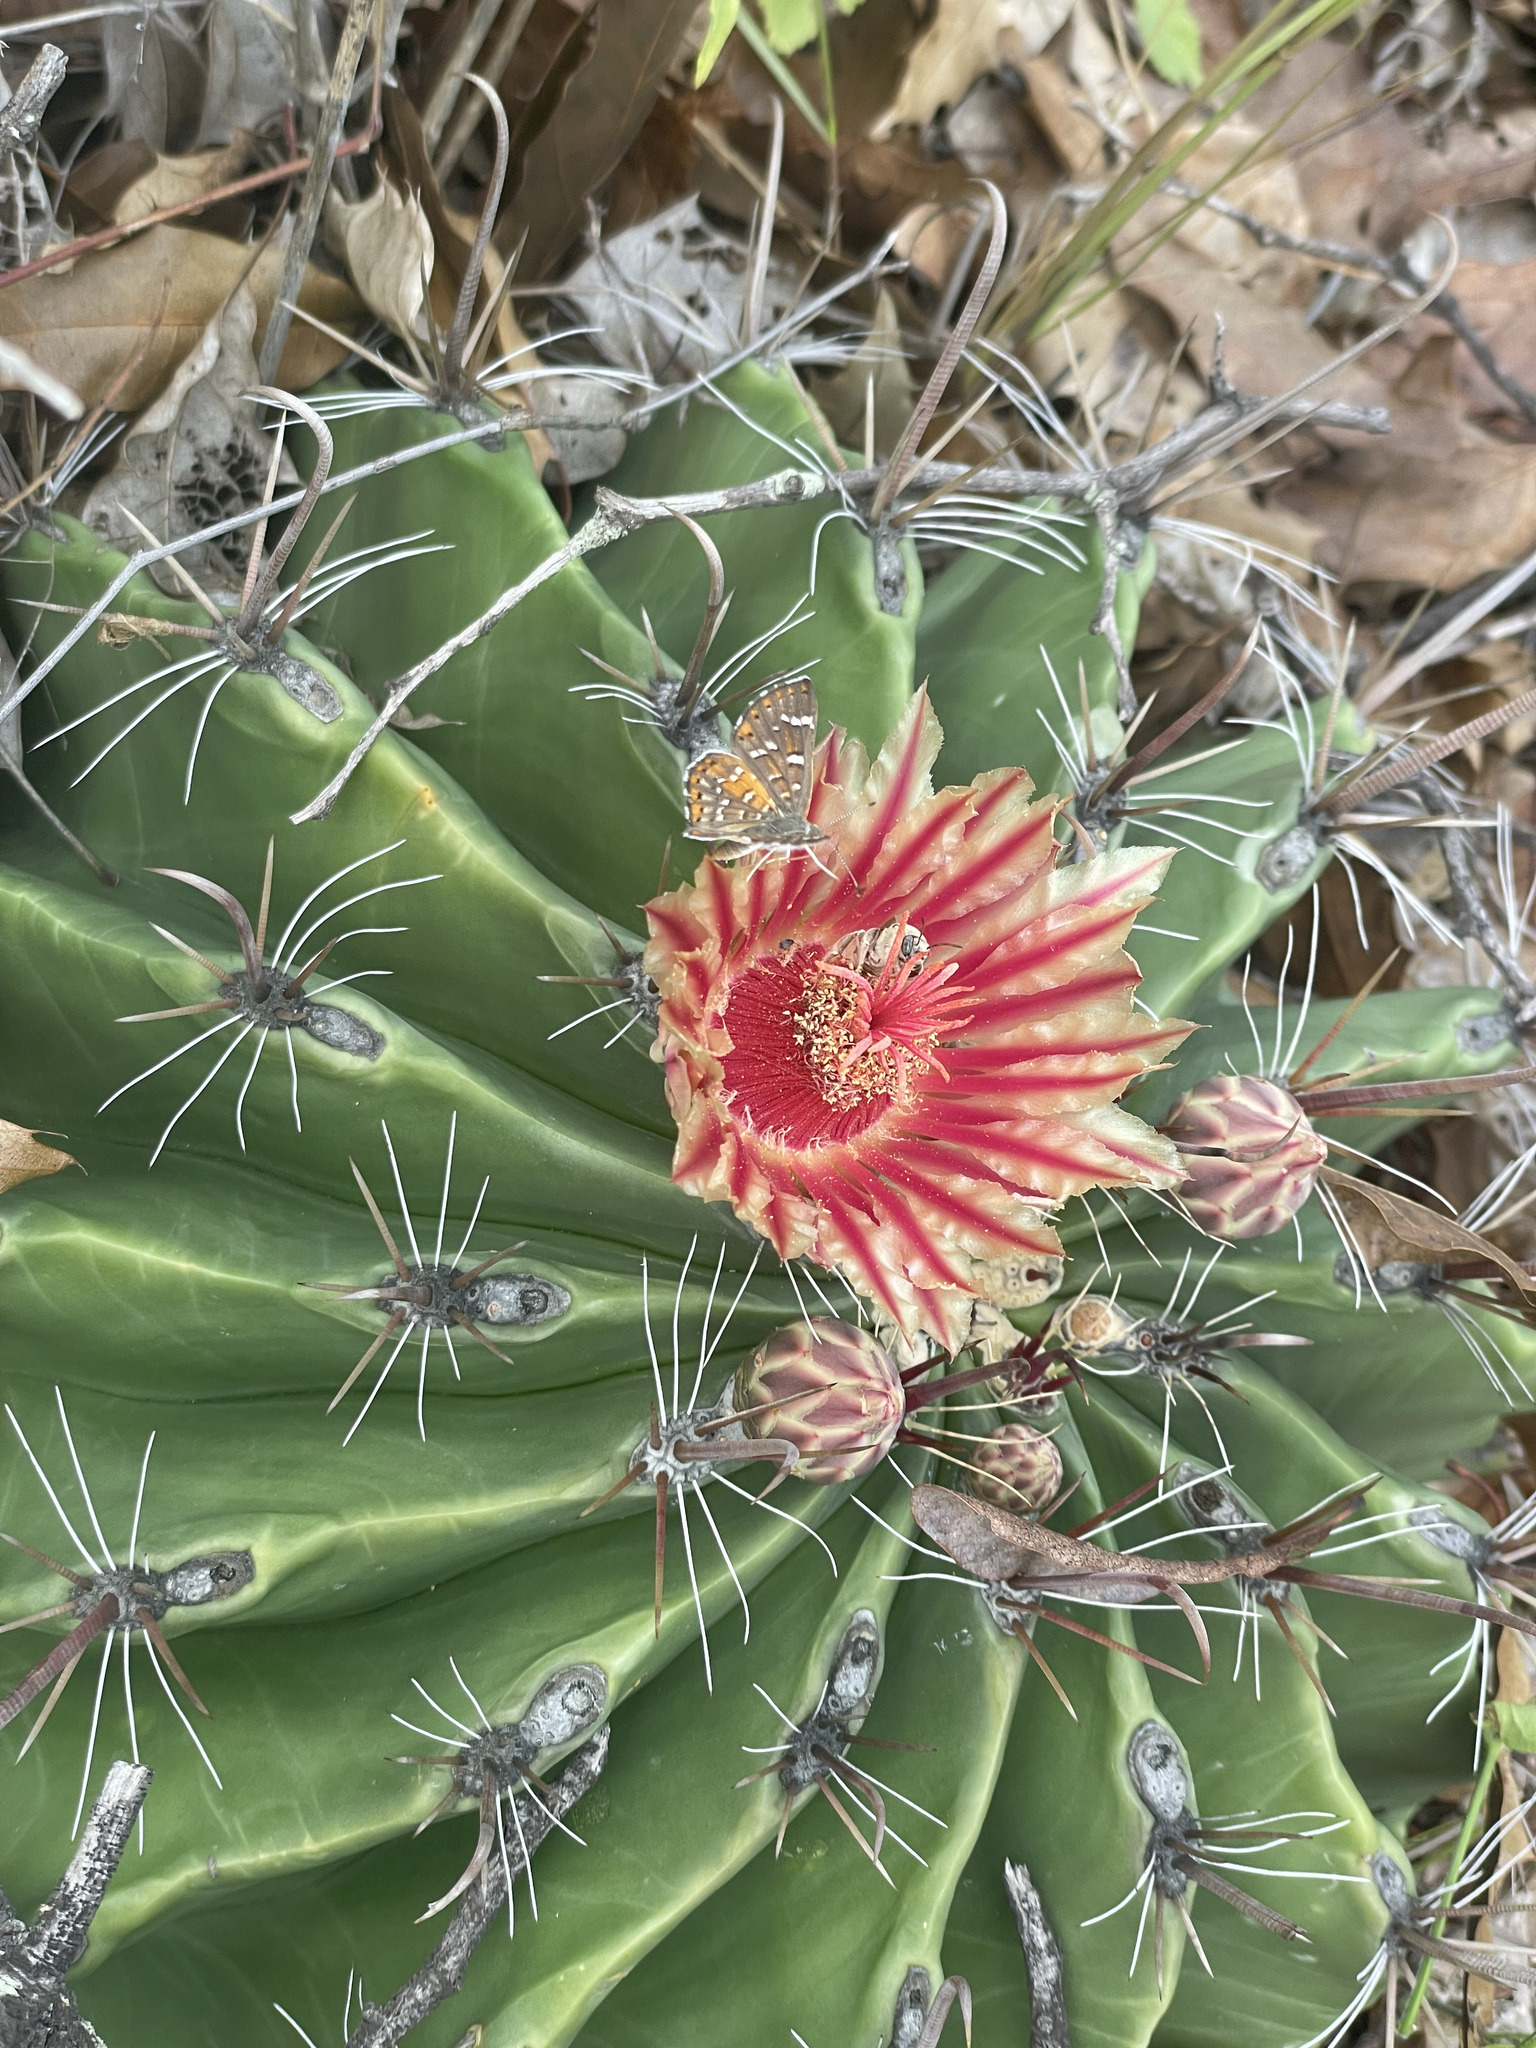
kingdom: Plantae
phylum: Tracheophyta
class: Magnoliopsida
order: Caryophyllales
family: Cactaceae
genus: Ferocactus
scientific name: Ferocactus townsendianus
